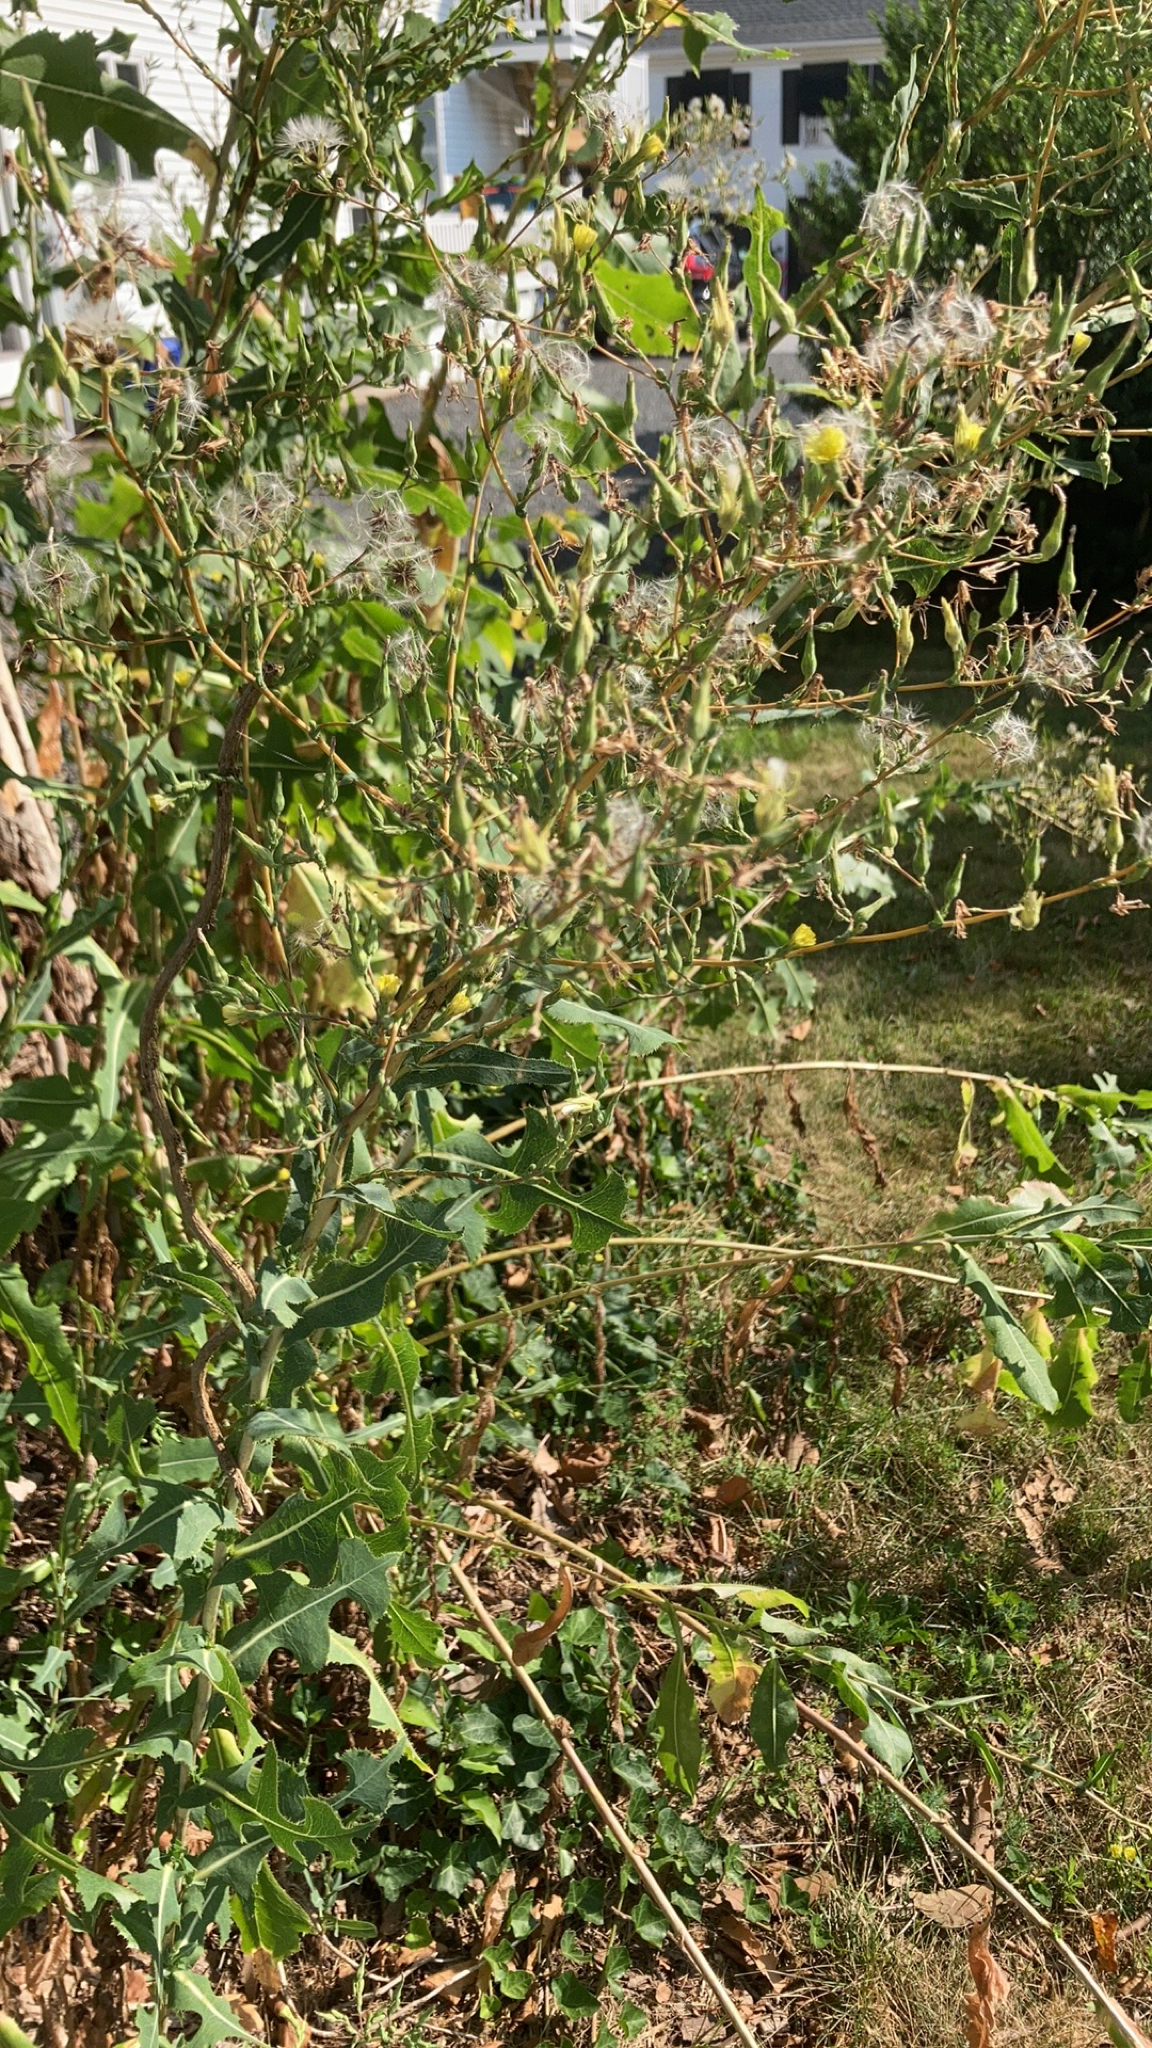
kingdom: Plantae
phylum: Tracheophyta
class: Magnoliopsida
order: Asterales
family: Asteraceae
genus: Lactuca
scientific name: Lactuca serriola
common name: Prickly lettuce
